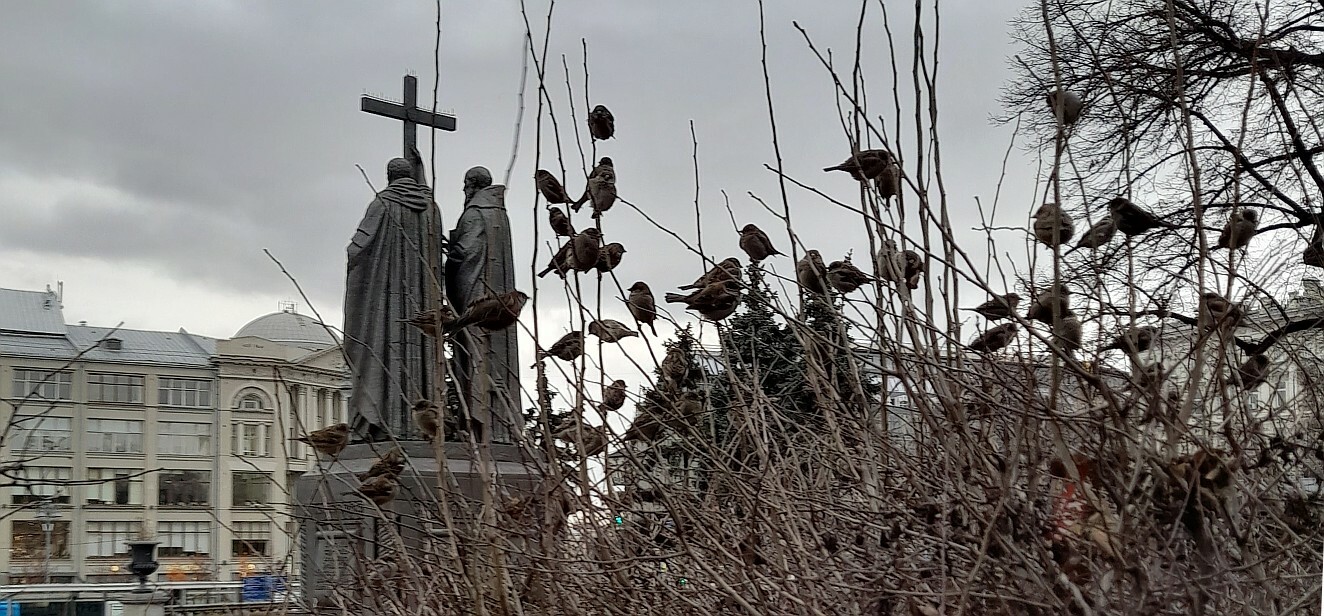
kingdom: Animalia
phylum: Chordata
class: Aves
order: Passeriformes
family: Passeridae
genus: Passer
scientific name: Passer domesticus
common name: House sparrow
